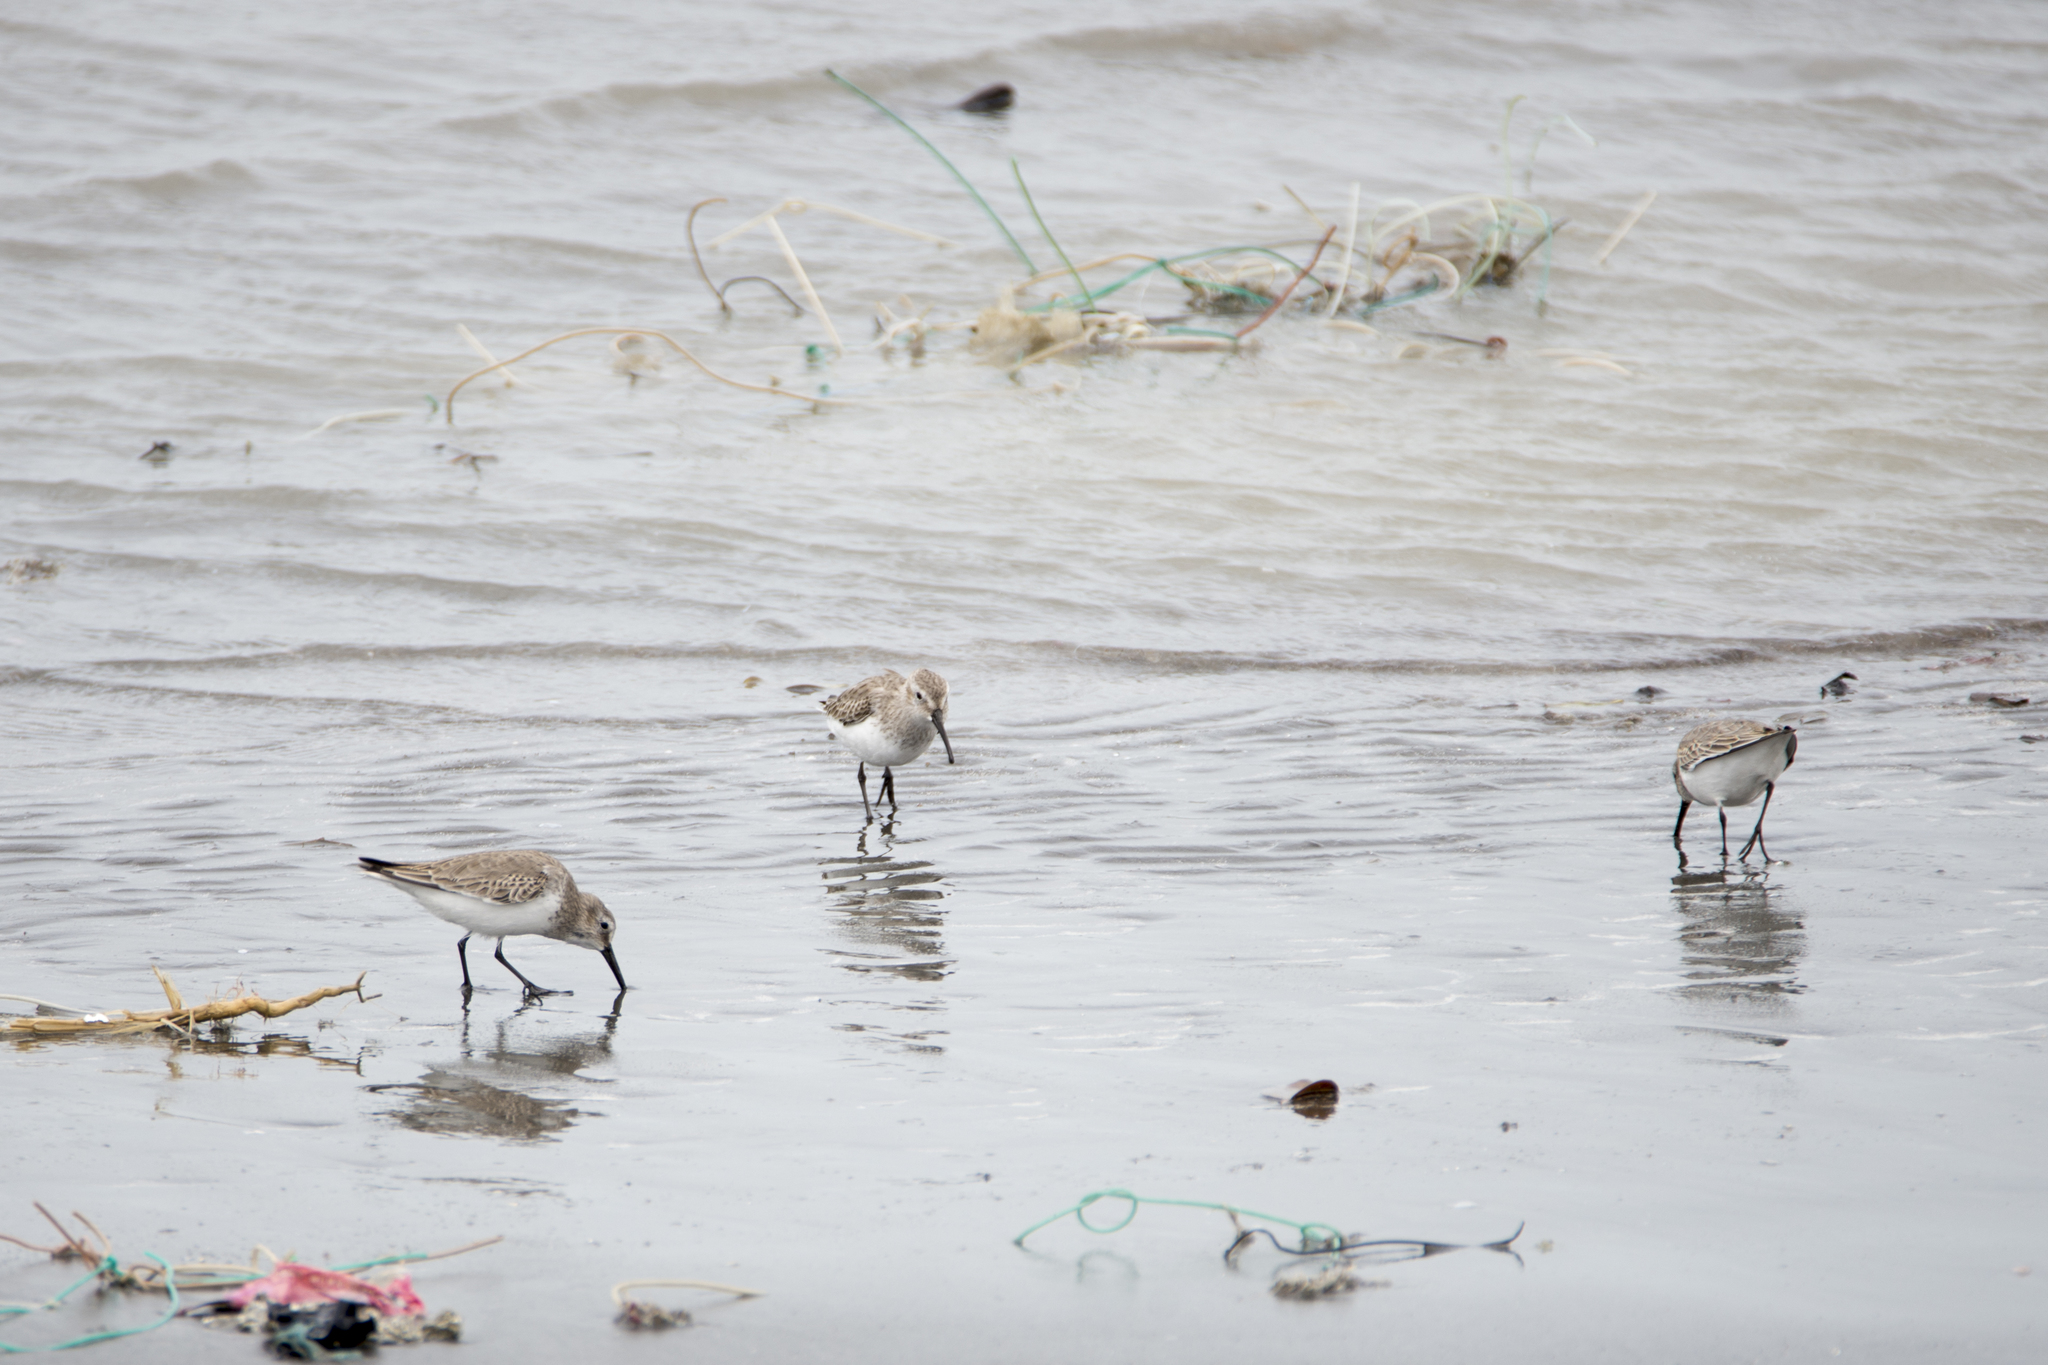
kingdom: Animalia
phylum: Chordata
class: Aves
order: Charadriiformes
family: Scolopacidae
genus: Calidris
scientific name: Calidris alpina
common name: Dunlin
